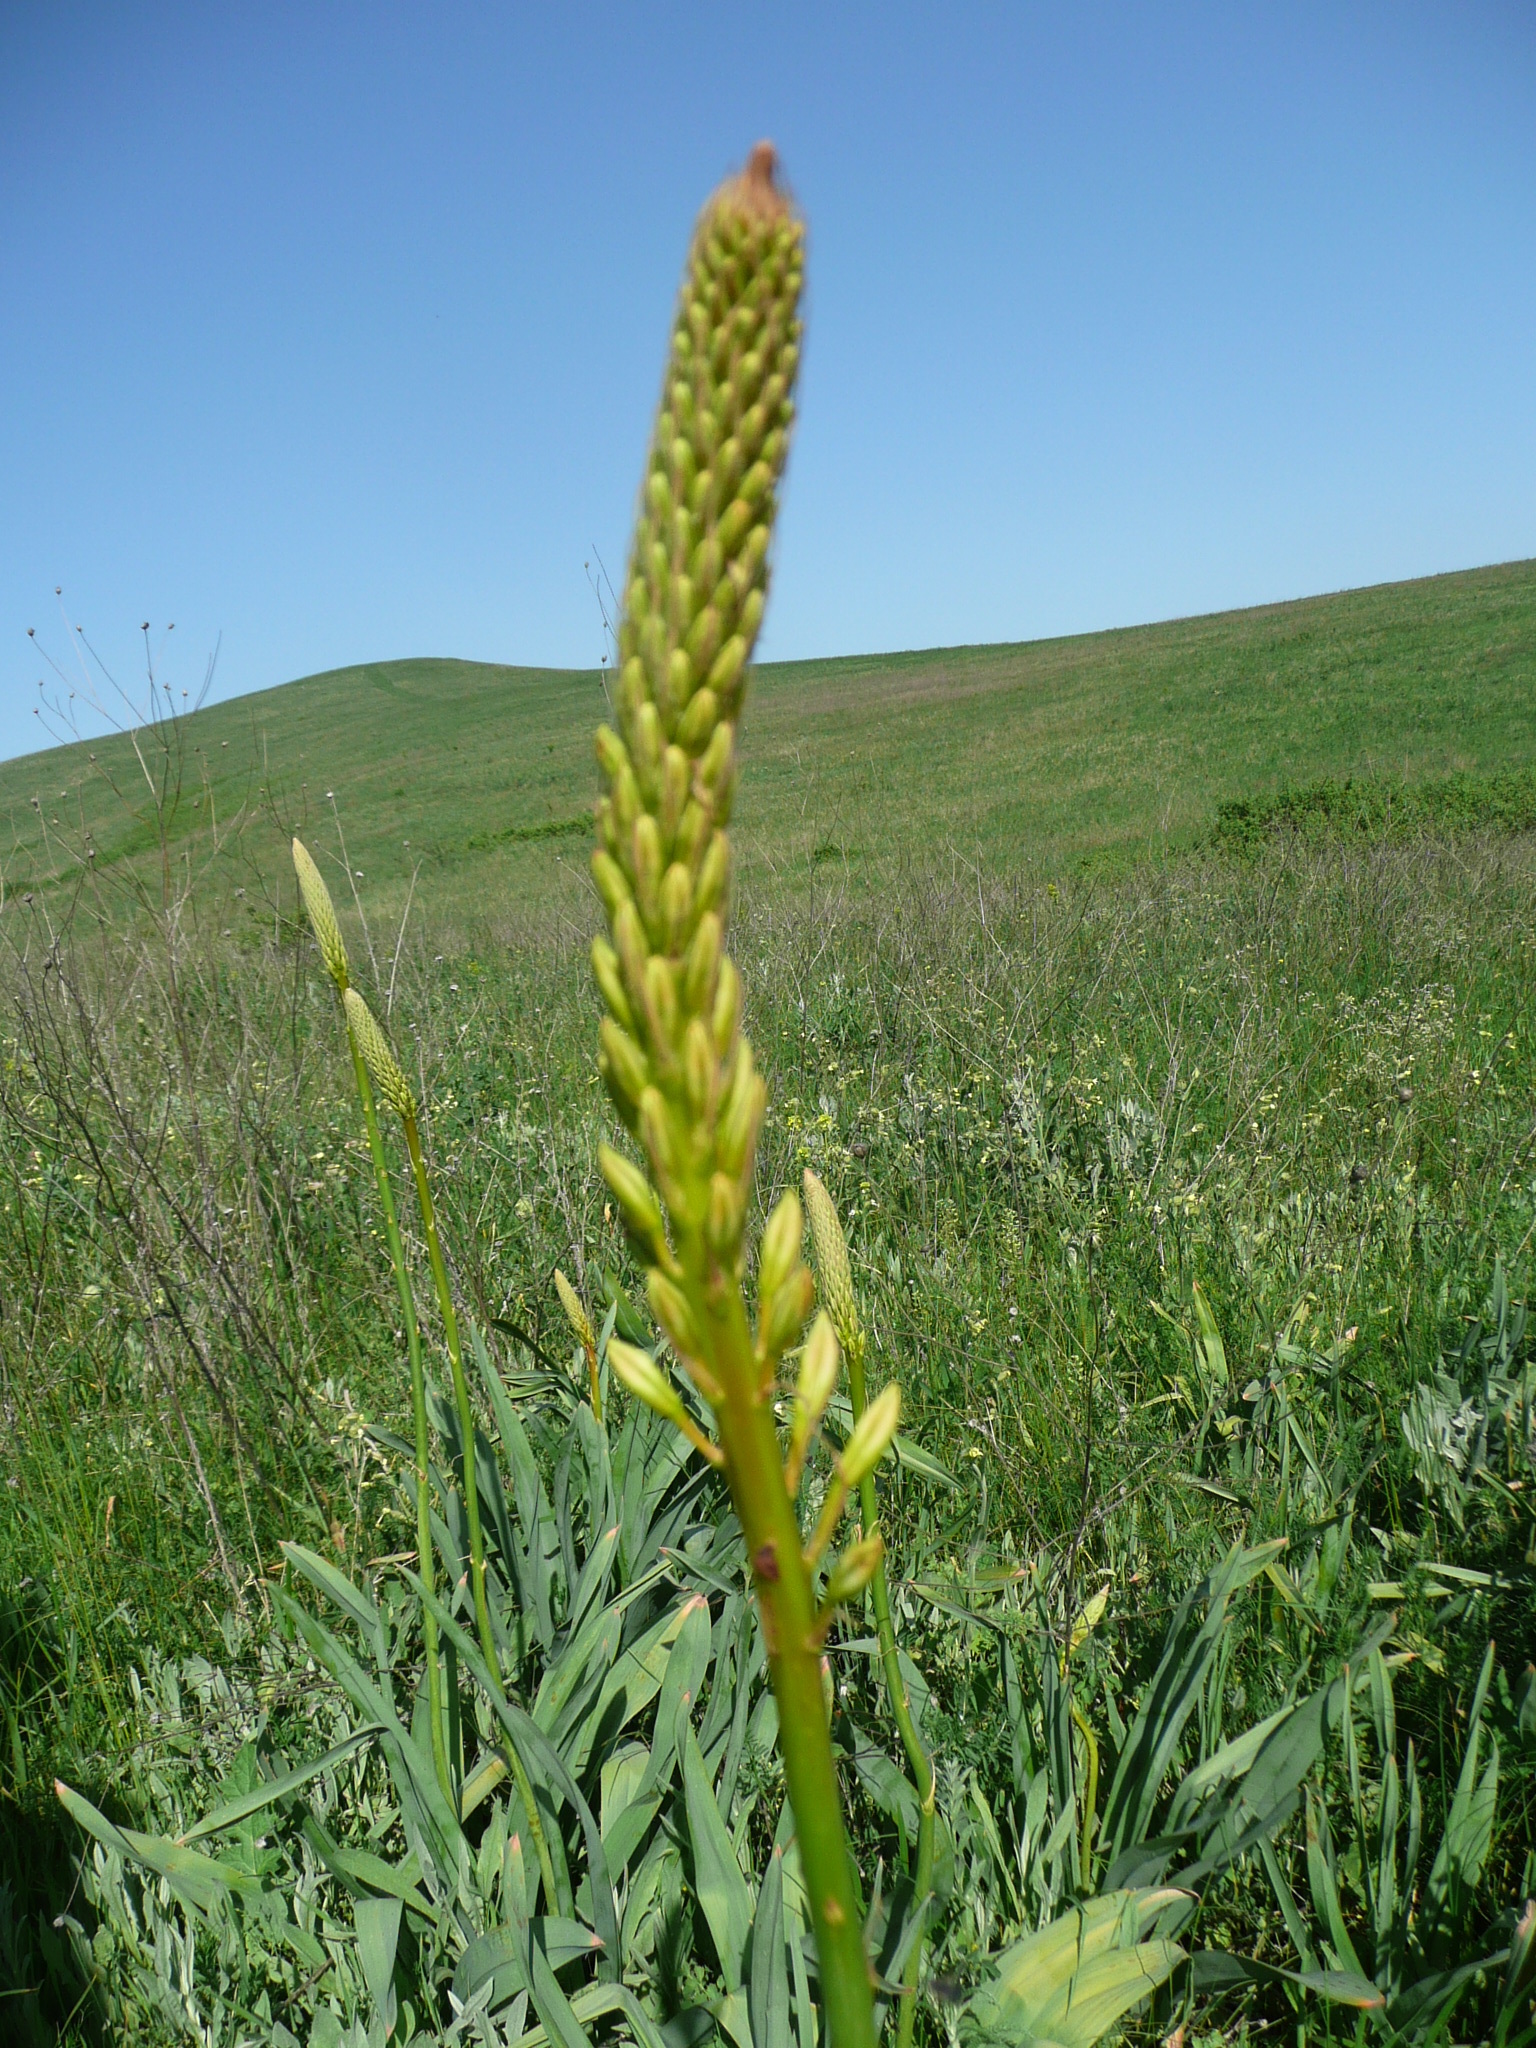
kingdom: Plantae
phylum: Tracheophyta
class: Liliopsida
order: Asparagales
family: Asphodelaceae
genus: Eremurus
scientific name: Eremurus spectabilis
